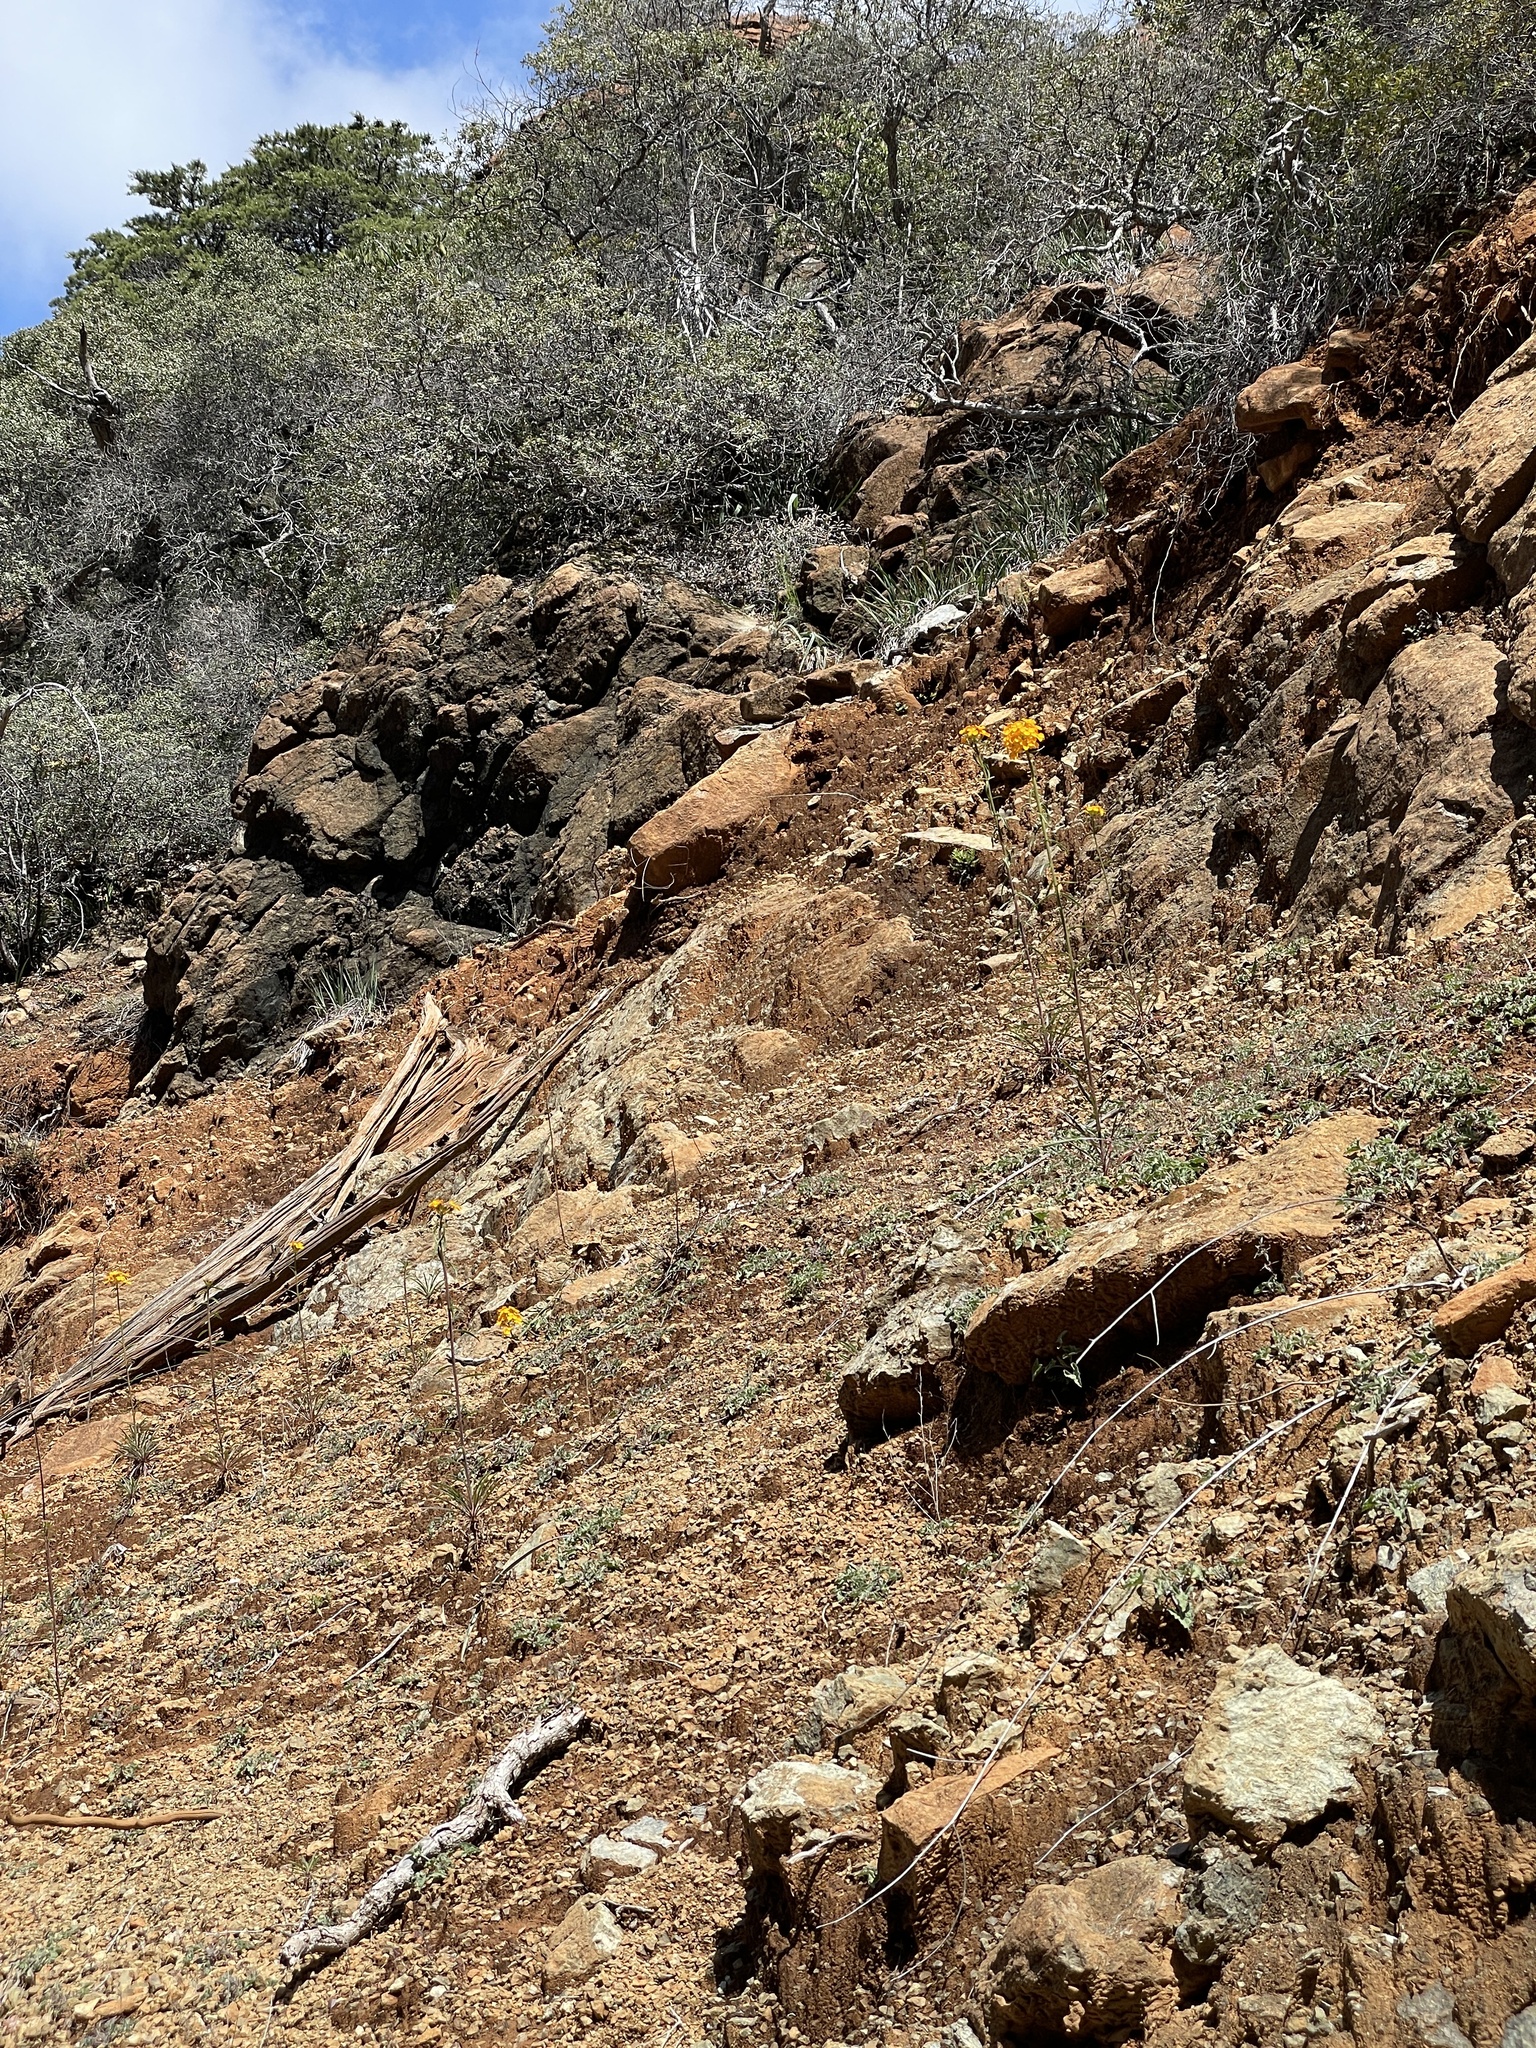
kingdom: Plantae
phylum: Tracheophyta
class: Magnoliopsida
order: Brassicales
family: Brassicaceae
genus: Erysimum
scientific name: Erysimum capitatum
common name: Western wallflower
